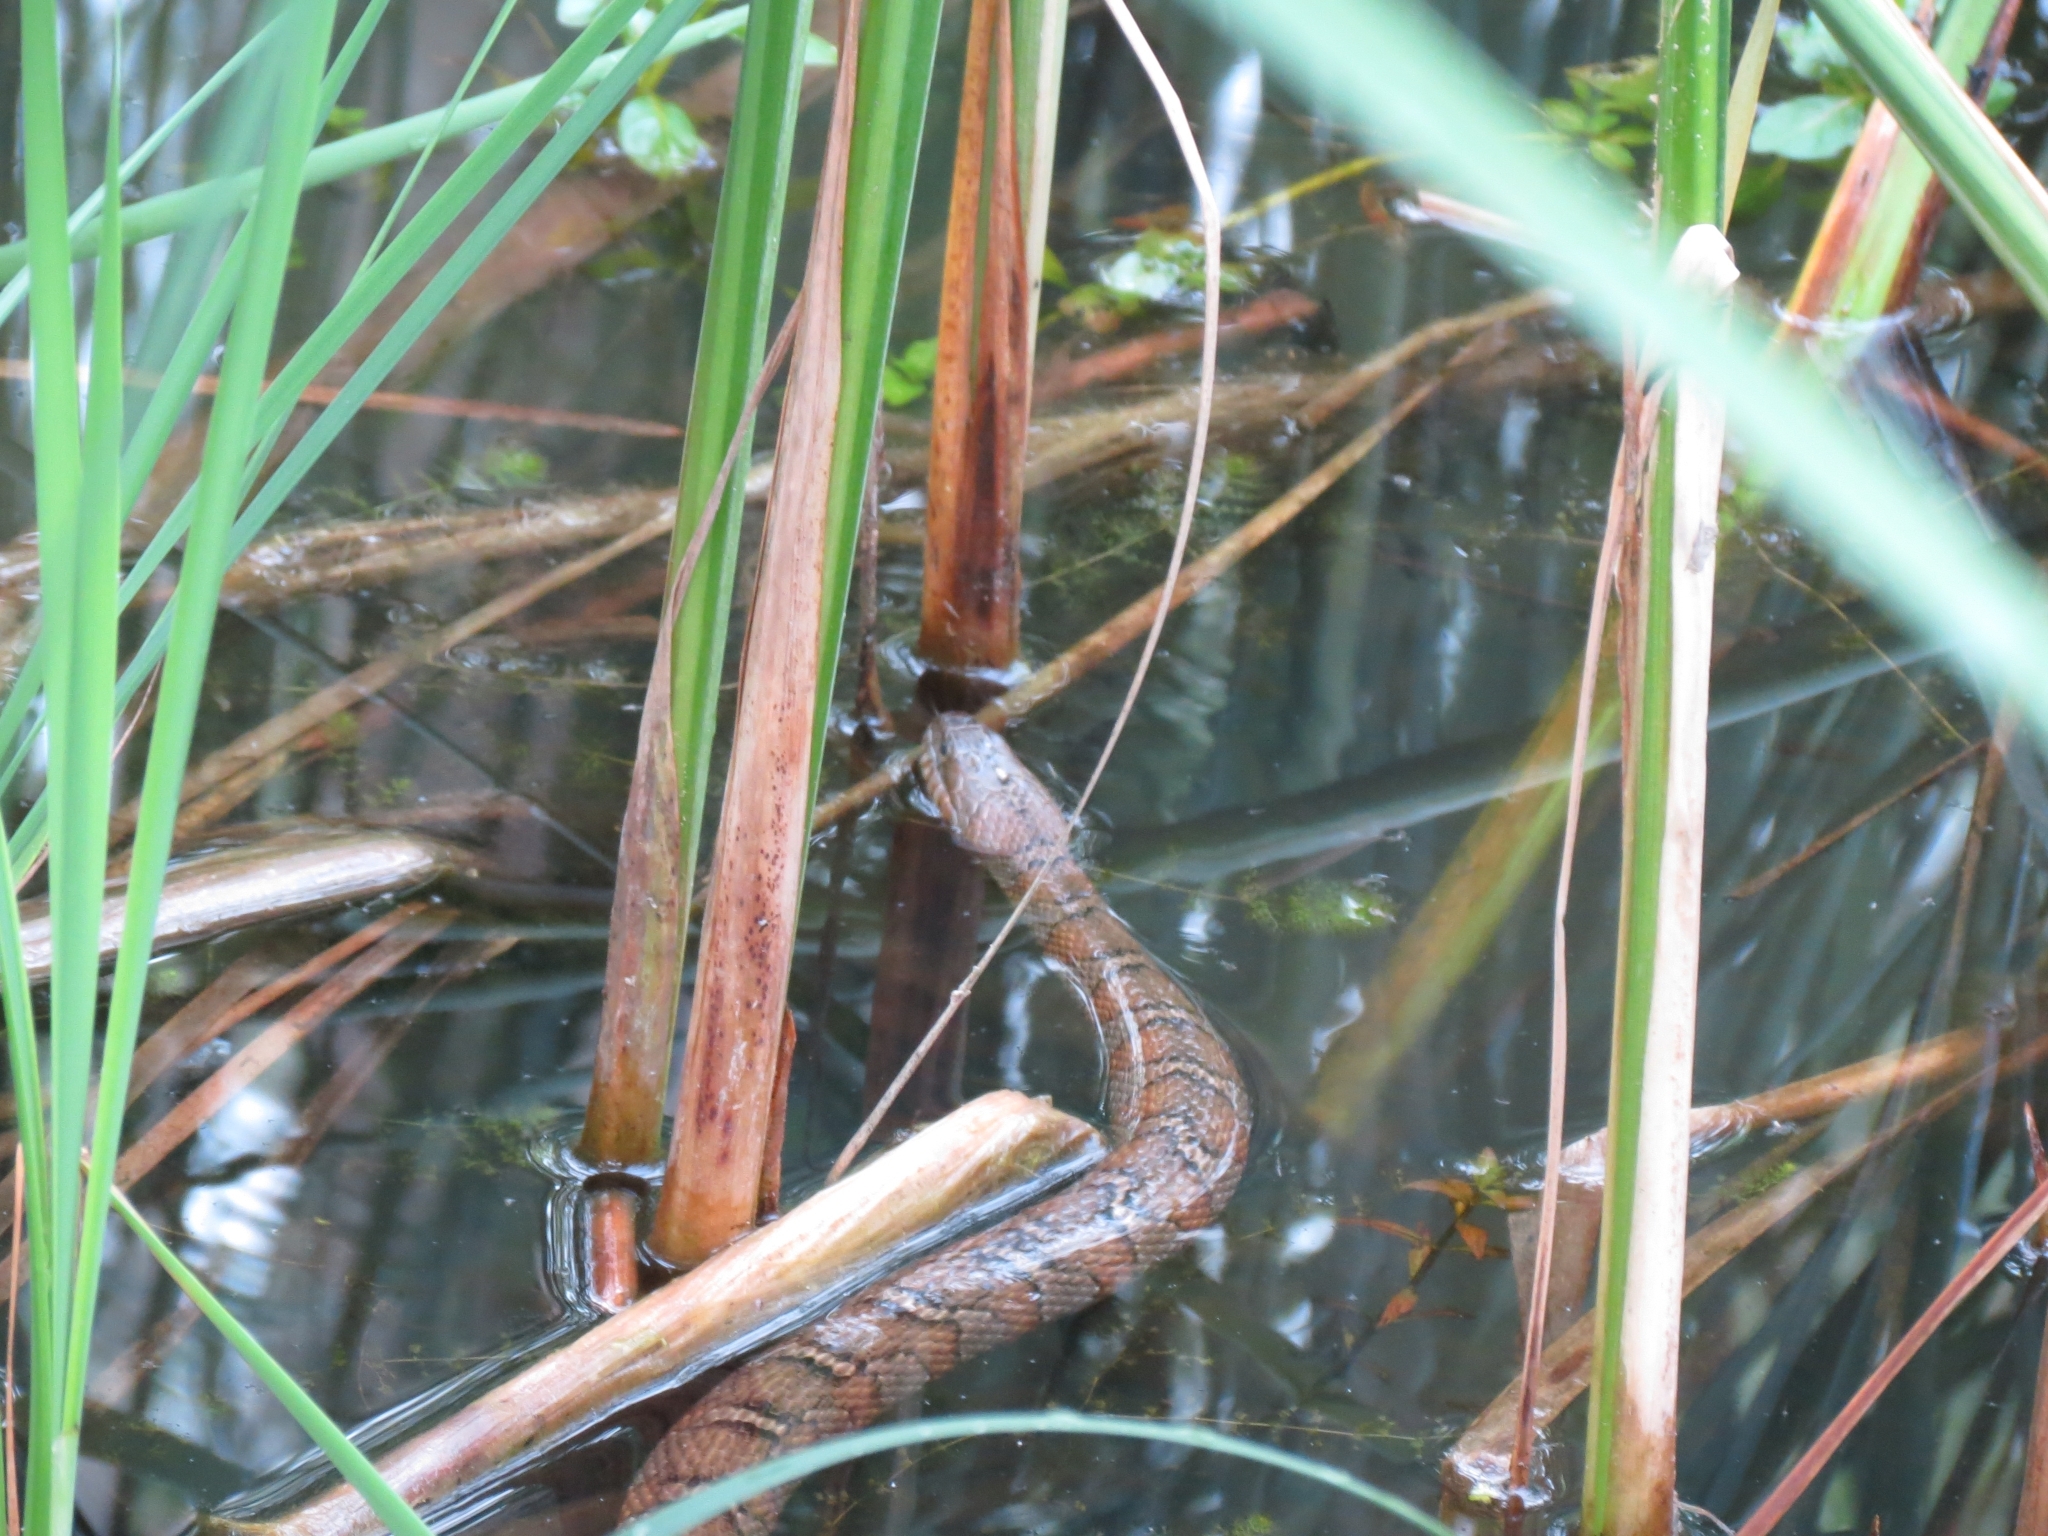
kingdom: Animalia
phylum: Chordata
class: Squamata
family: Colubridae
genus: Nerodia
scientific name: Nerodia sipedon
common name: Northern water snake
